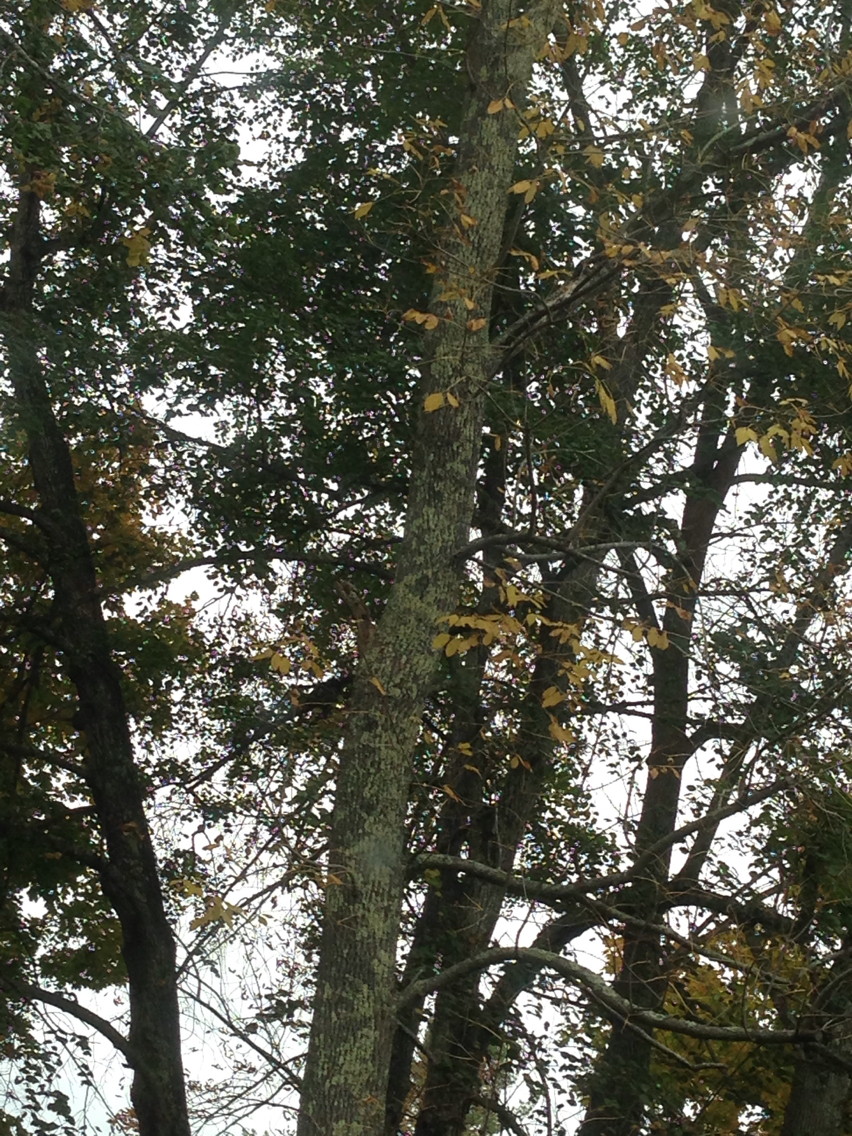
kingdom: Plantae
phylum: Tracheophyta
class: Magnoliopsida
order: Lamiales
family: Oleaceae
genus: Fraxinus
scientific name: Fraxinus americana
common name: White ash
